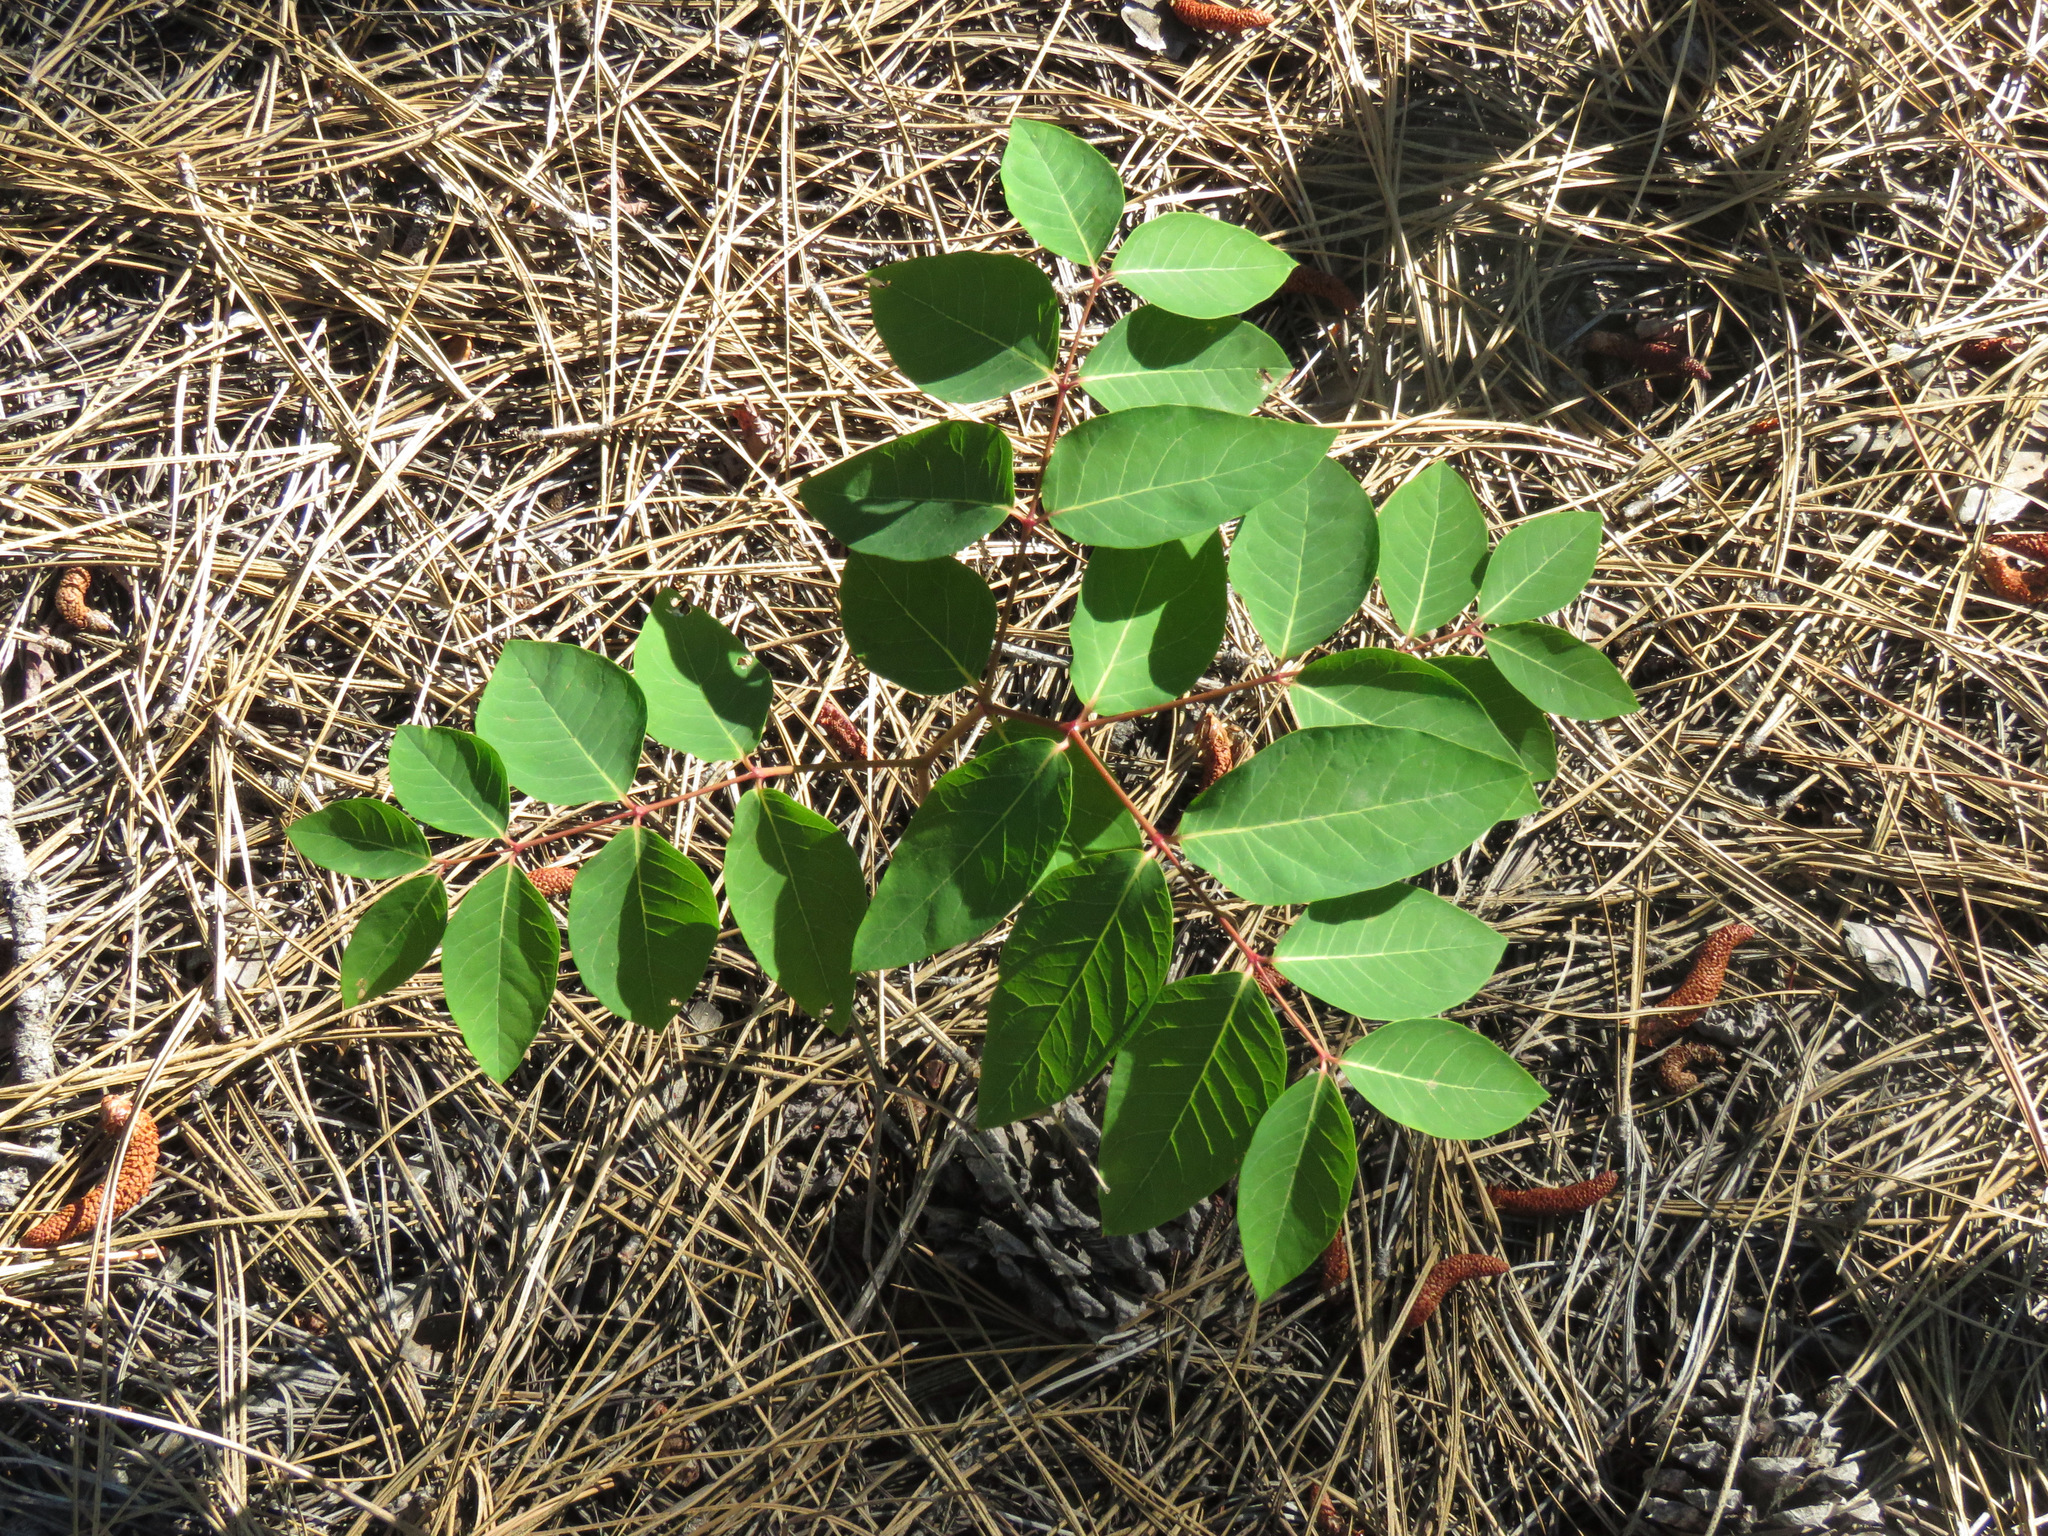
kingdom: Plantae
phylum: Tracheophyta
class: Magnoliopsida
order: Gentianales
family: Apocynaceae
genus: Apocynum
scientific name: Apocynum androsaemifolium
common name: Spreading dogbane
